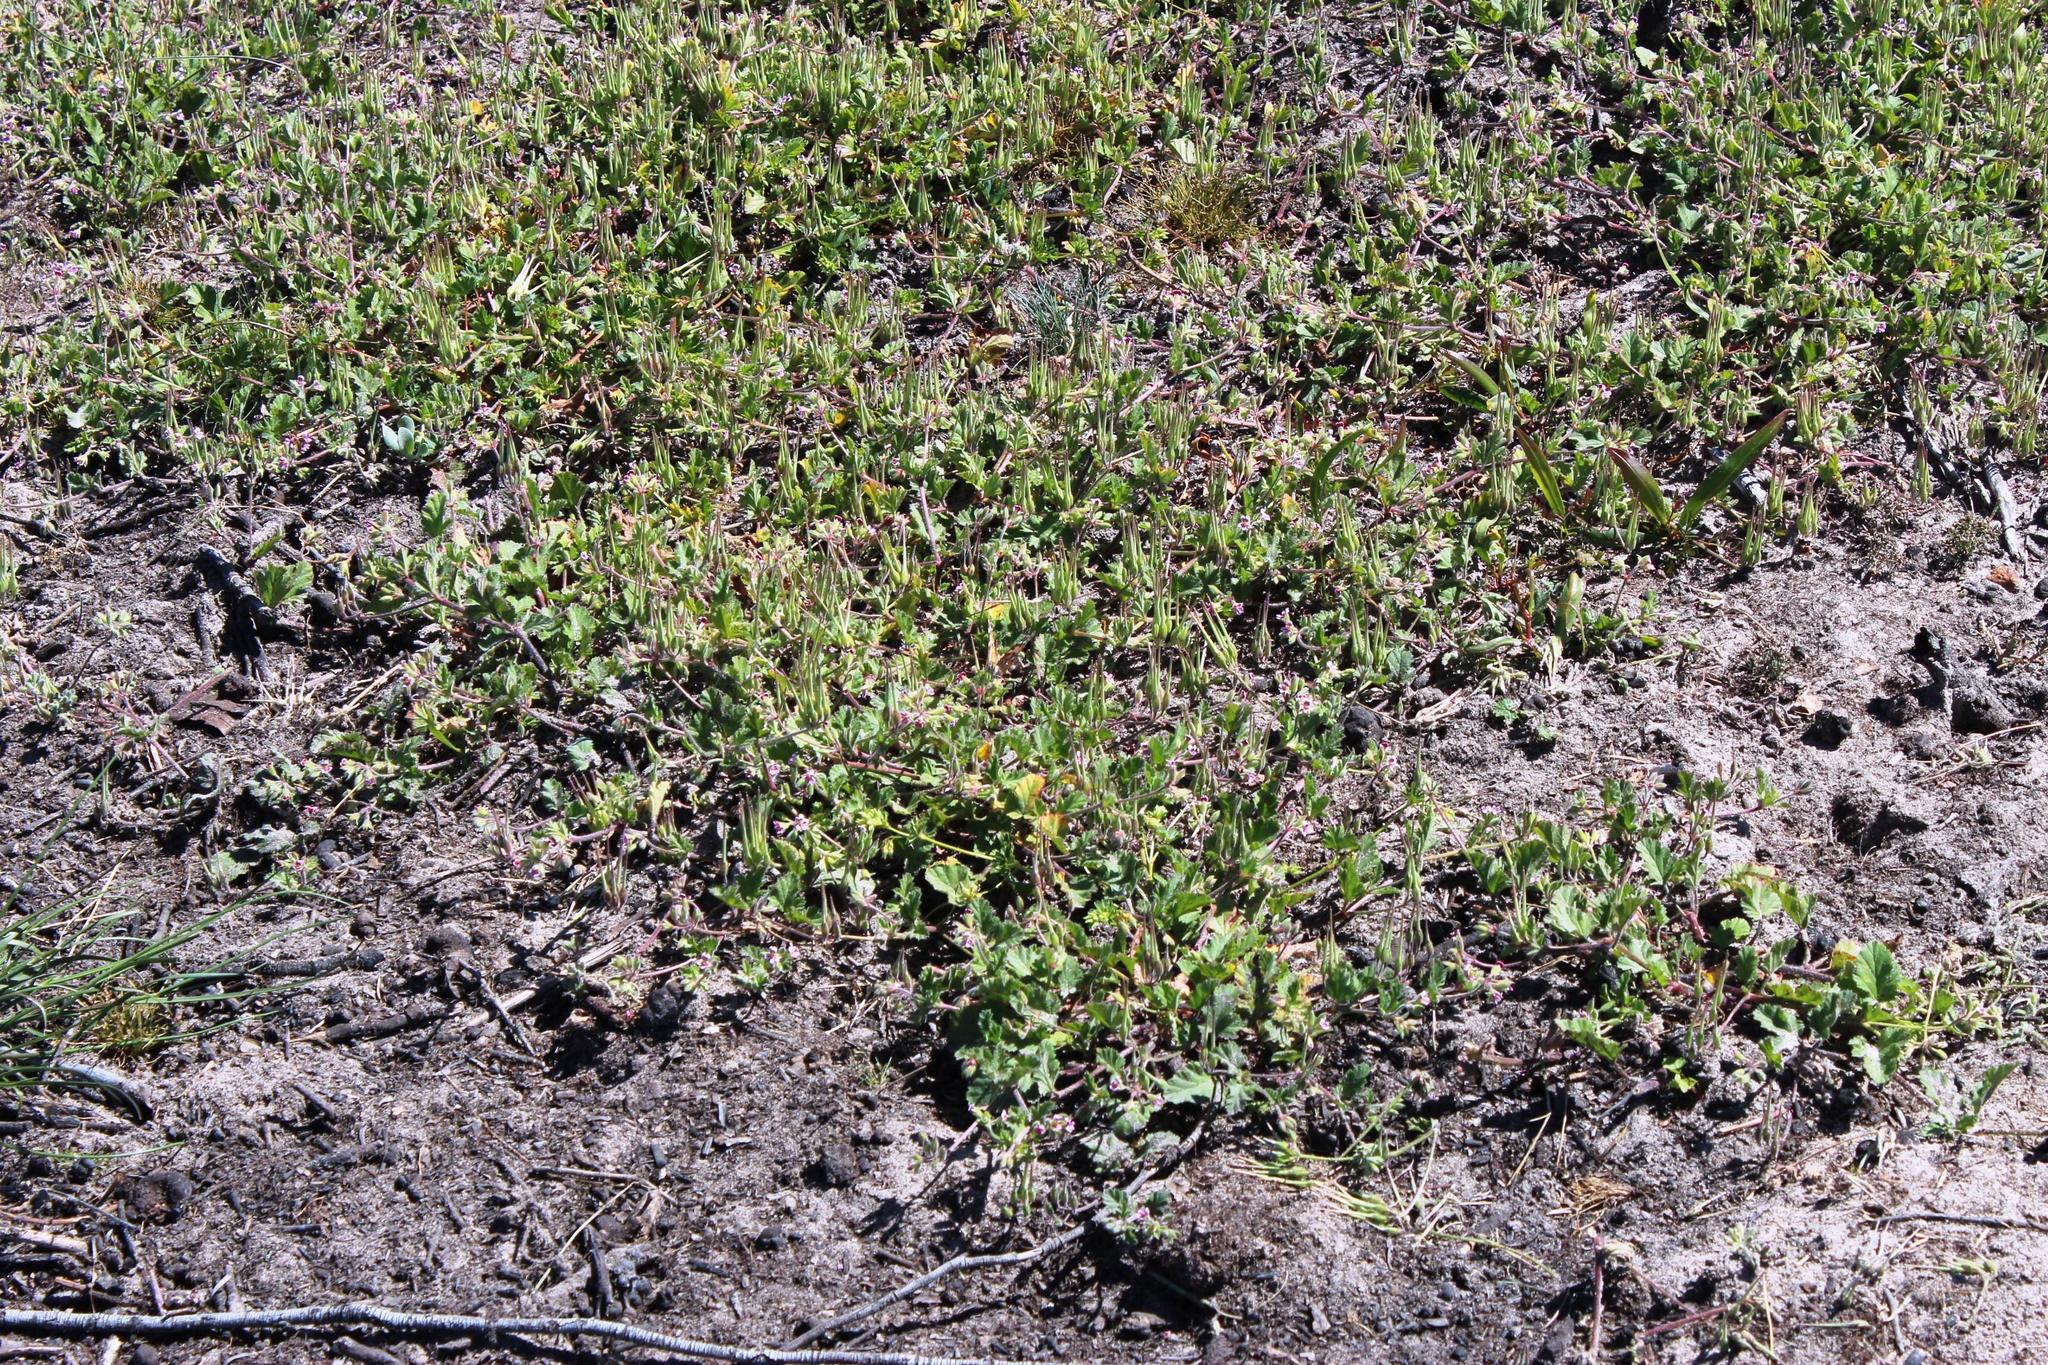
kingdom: Plantae
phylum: Tracheophyta
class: Magnoliopsida
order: Geraniales
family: Geraniaceae
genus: Pelargonium
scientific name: Pelargonium althaeoides
